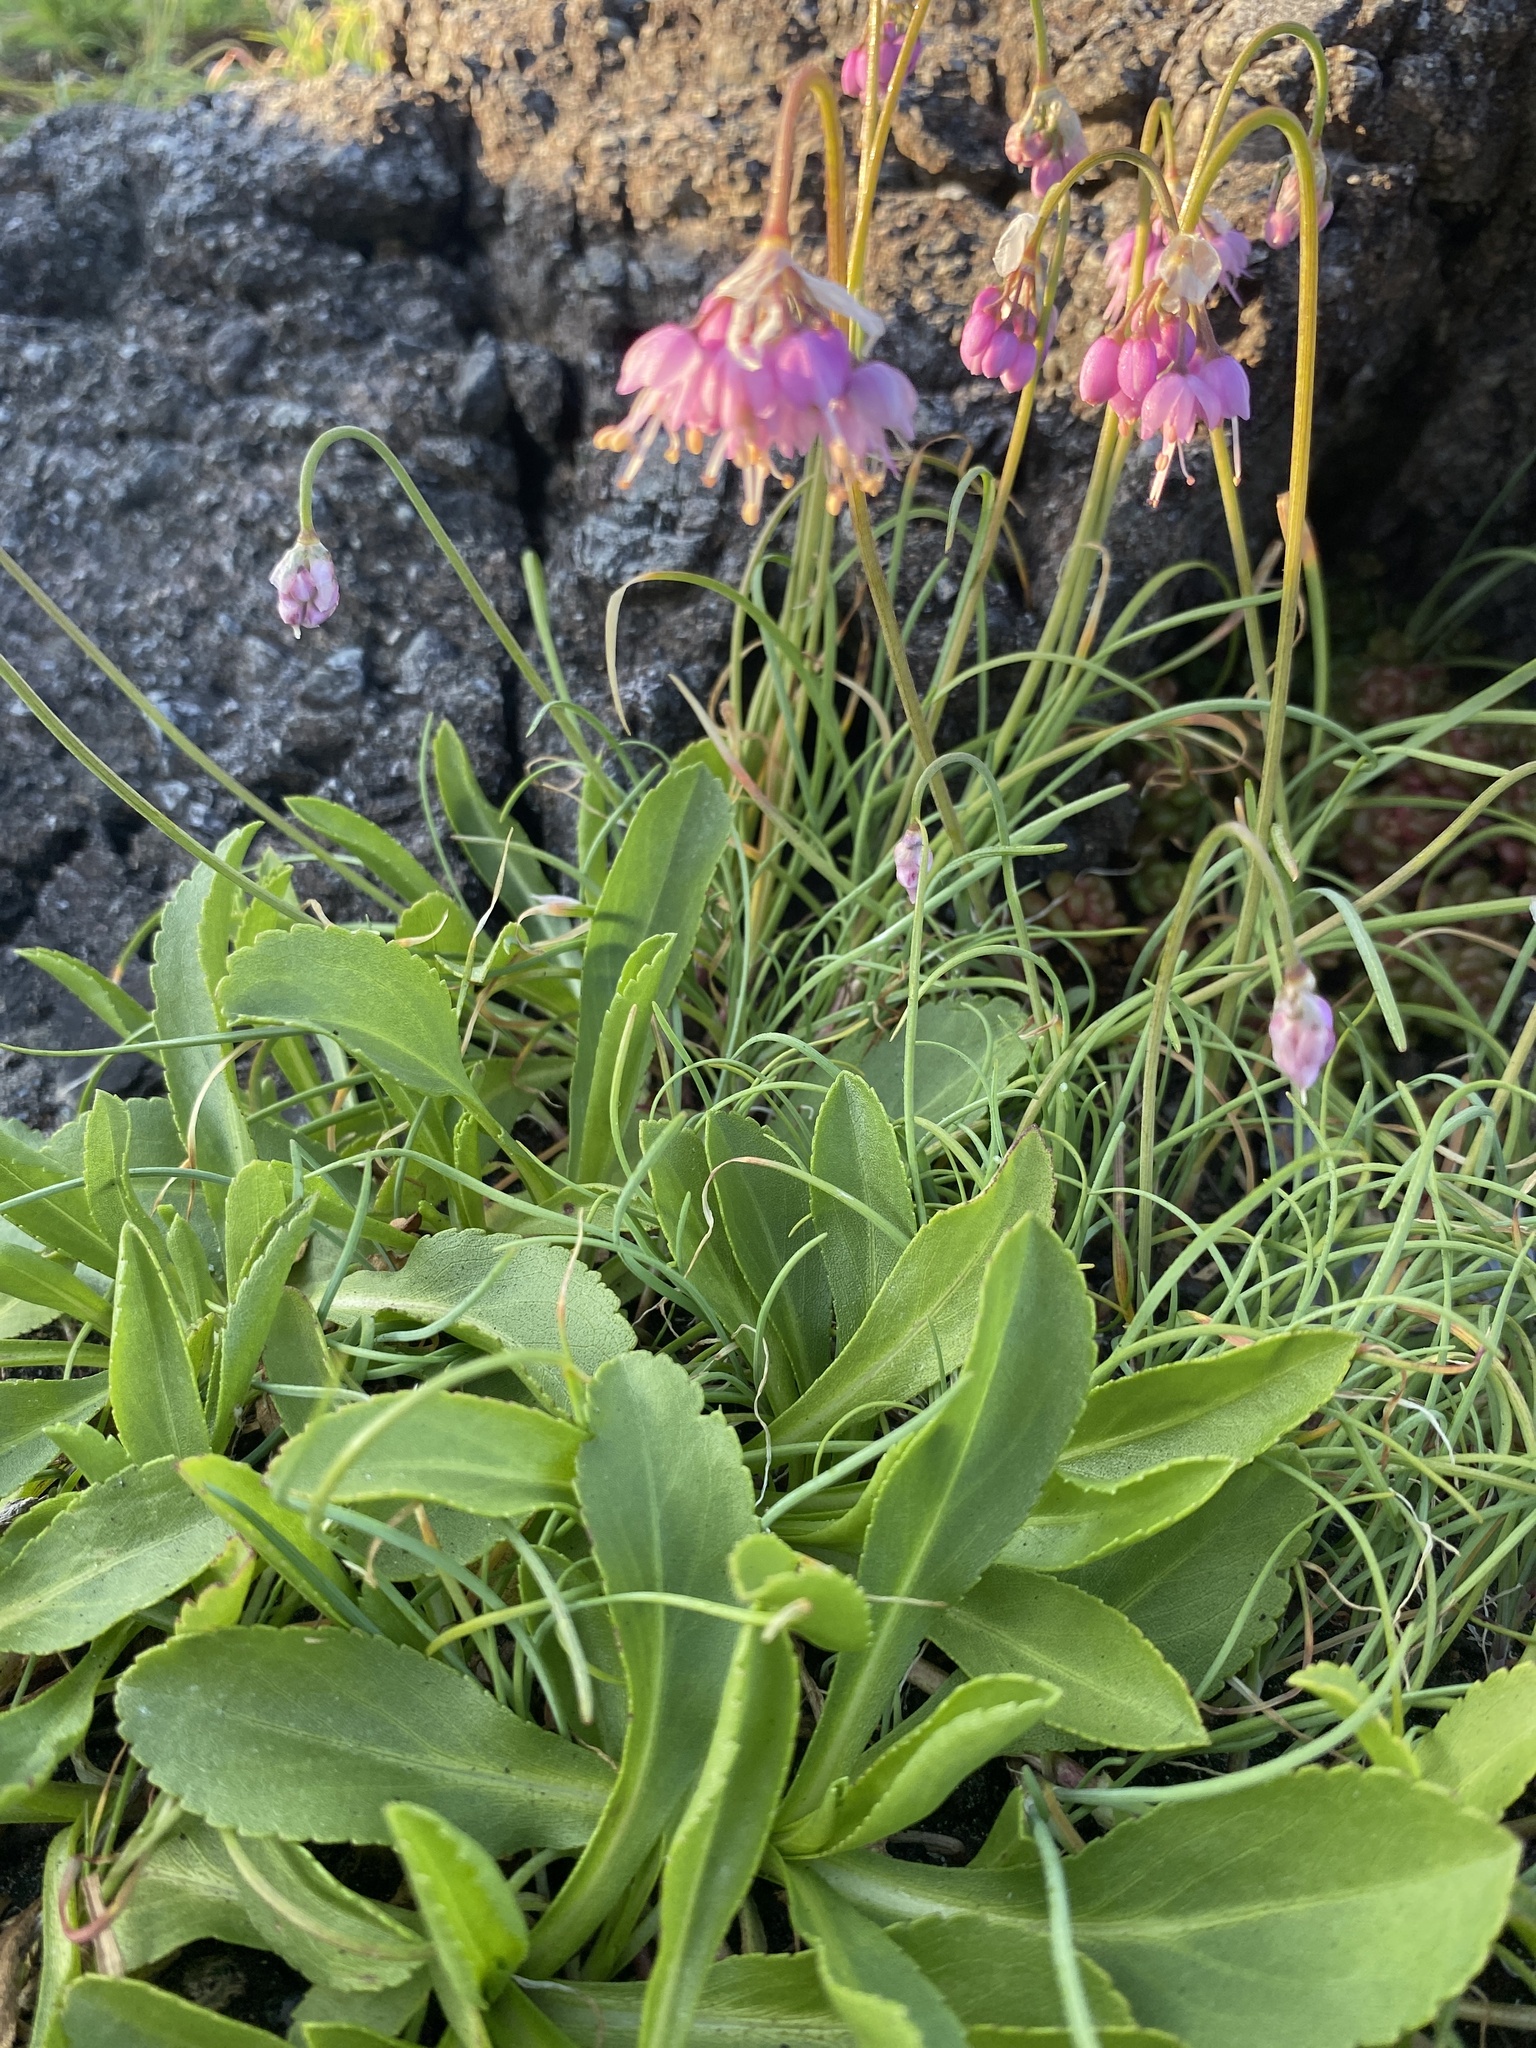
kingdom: Plantae
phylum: Tracheophyta
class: Liliopsida
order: Asparagales
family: Amaryllidaceae
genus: Allium
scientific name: Allium cernuum
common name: Nodding onion
